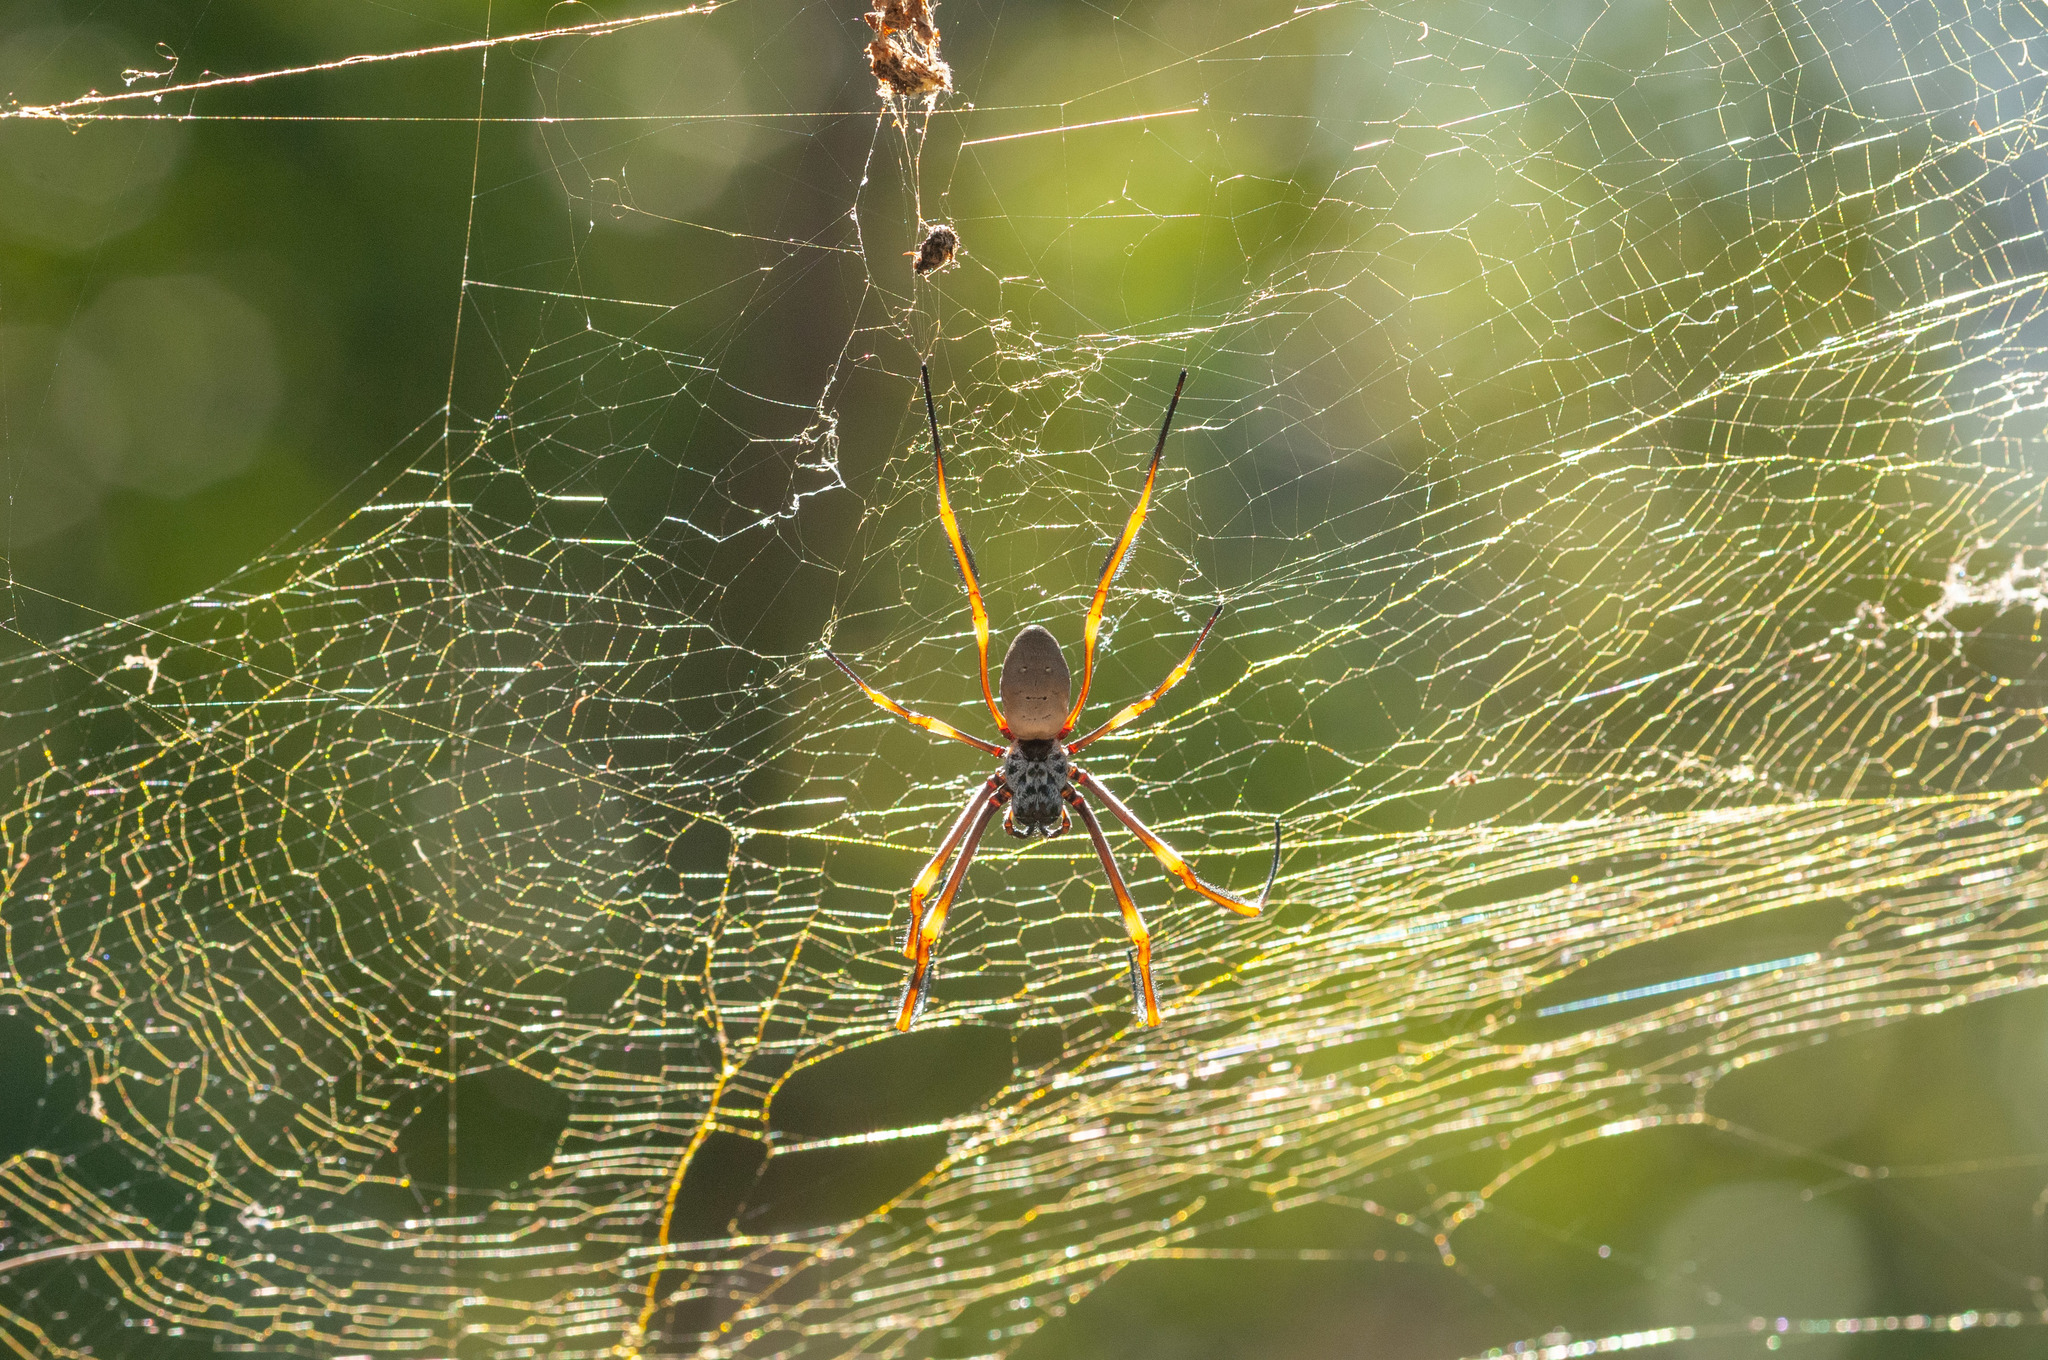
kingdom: Animalia
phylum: Arthropoda
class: Arachnida
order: Araneae
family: Araneidae
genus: Trichonephila
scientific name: Trichonephila plumipes
